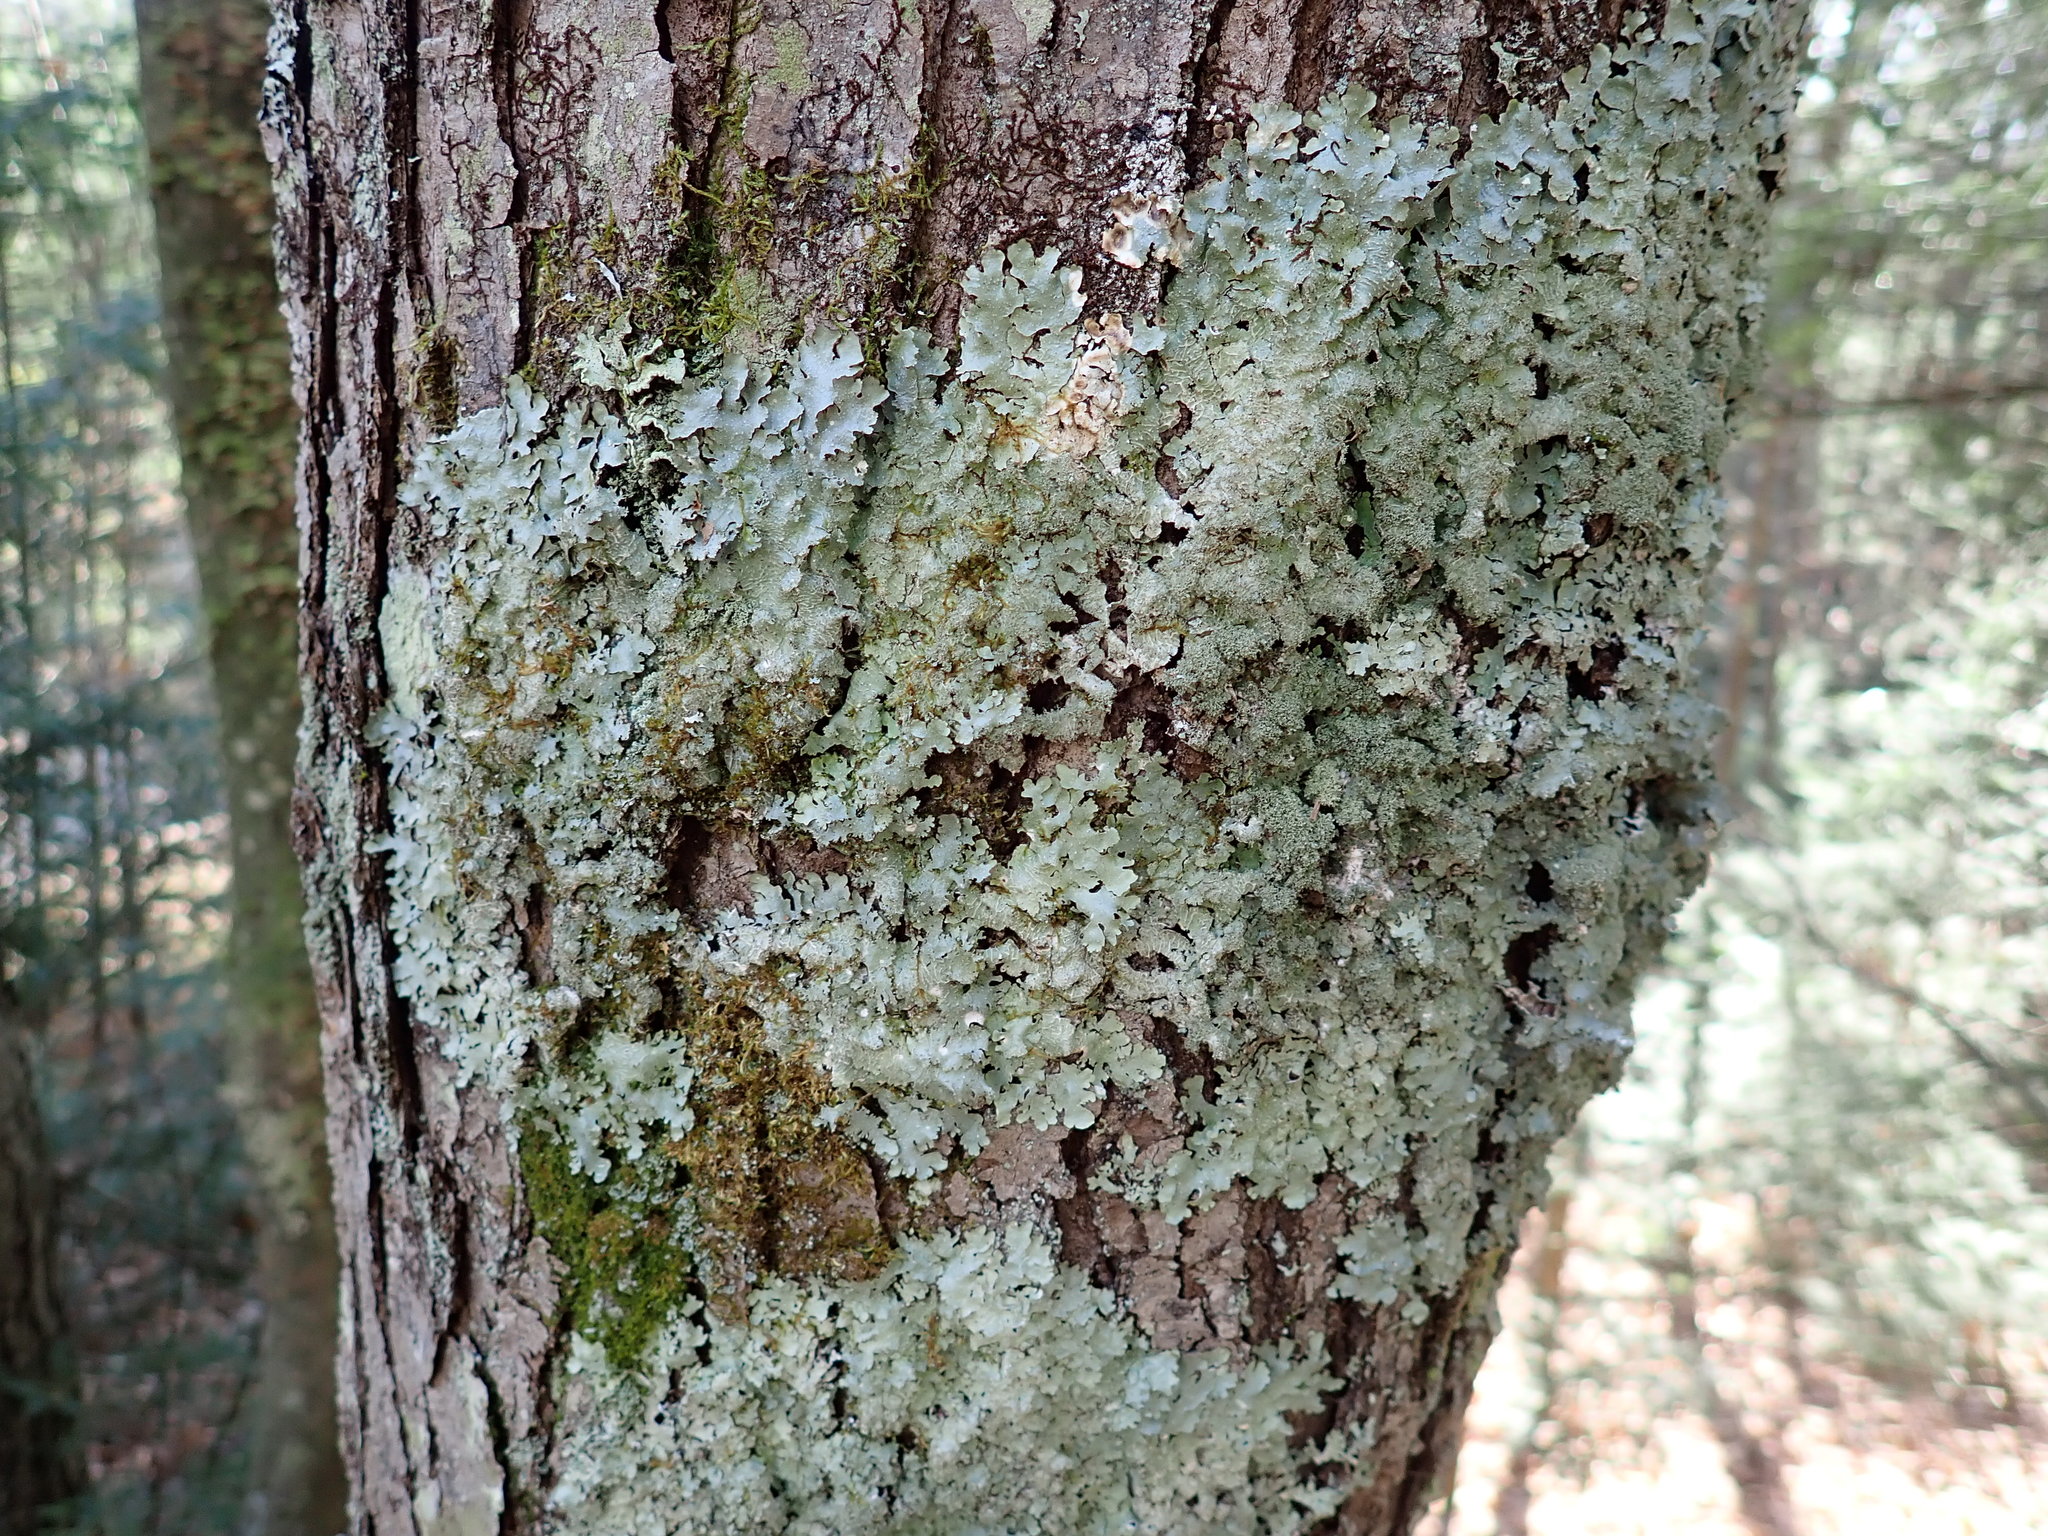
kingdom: Fungi
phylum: Ascomycota
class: Lecanoromycetes
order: Lecanorales
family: Parmeliaceae
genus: Flavoparmelia
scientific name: Flavoparmelia caperata
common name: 40-mile per hour lichen
